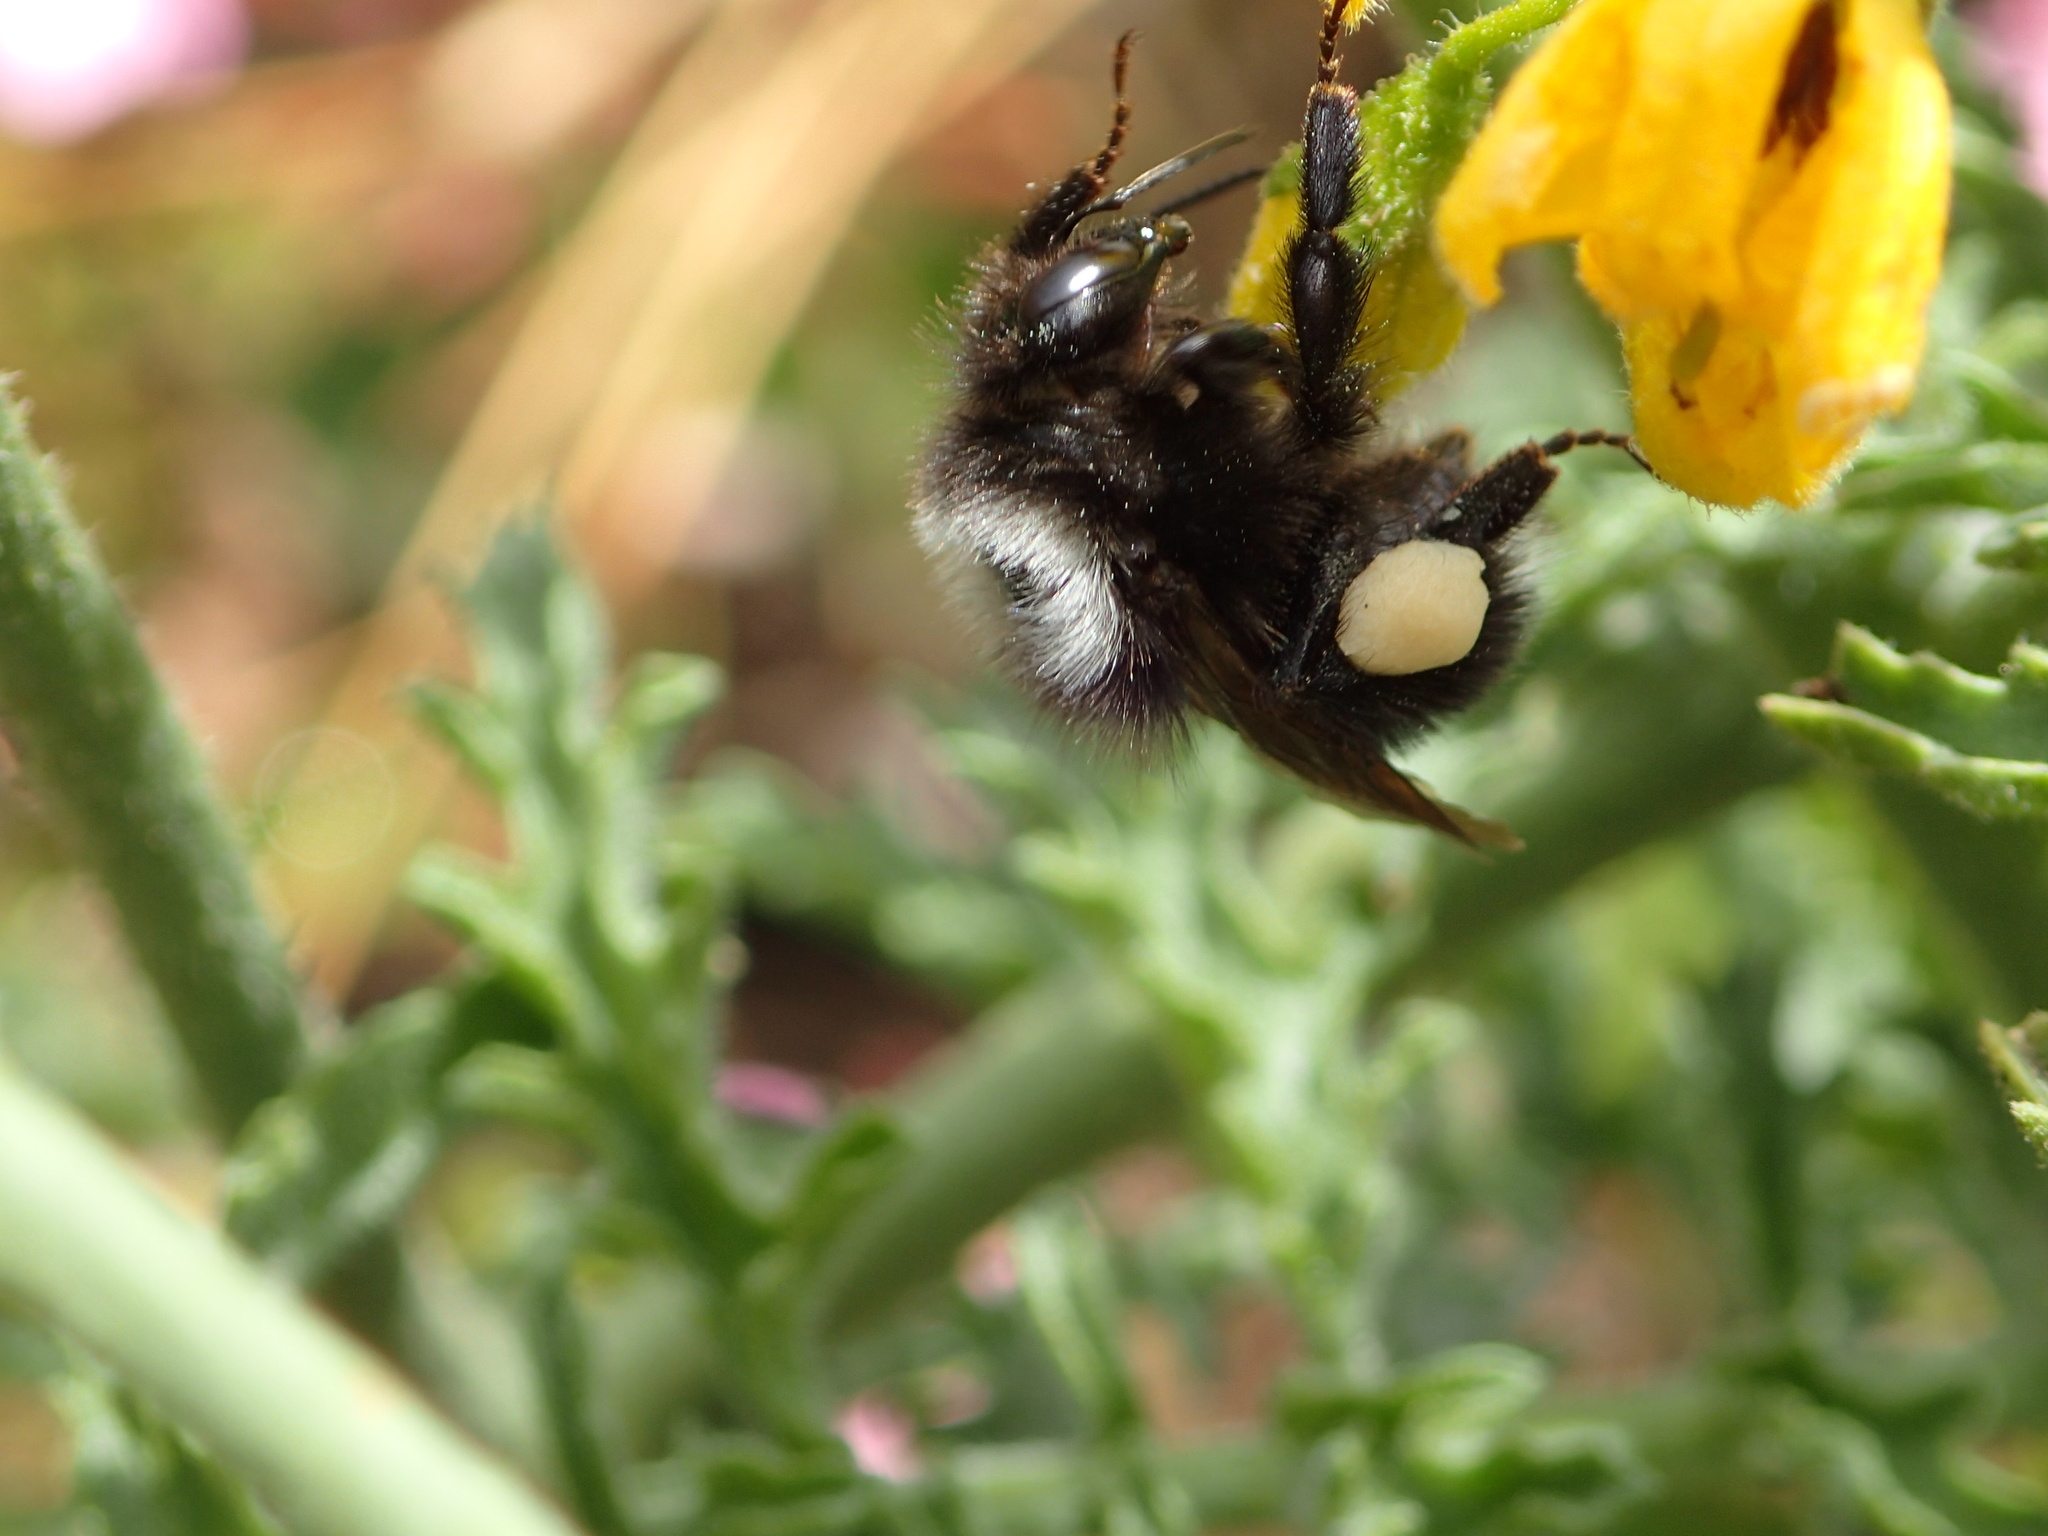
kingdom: Animalia
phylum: Arthropoda
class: Insecta
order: Hymenoptera
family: Apidae
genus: Bombus
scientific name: Bombus funebris
